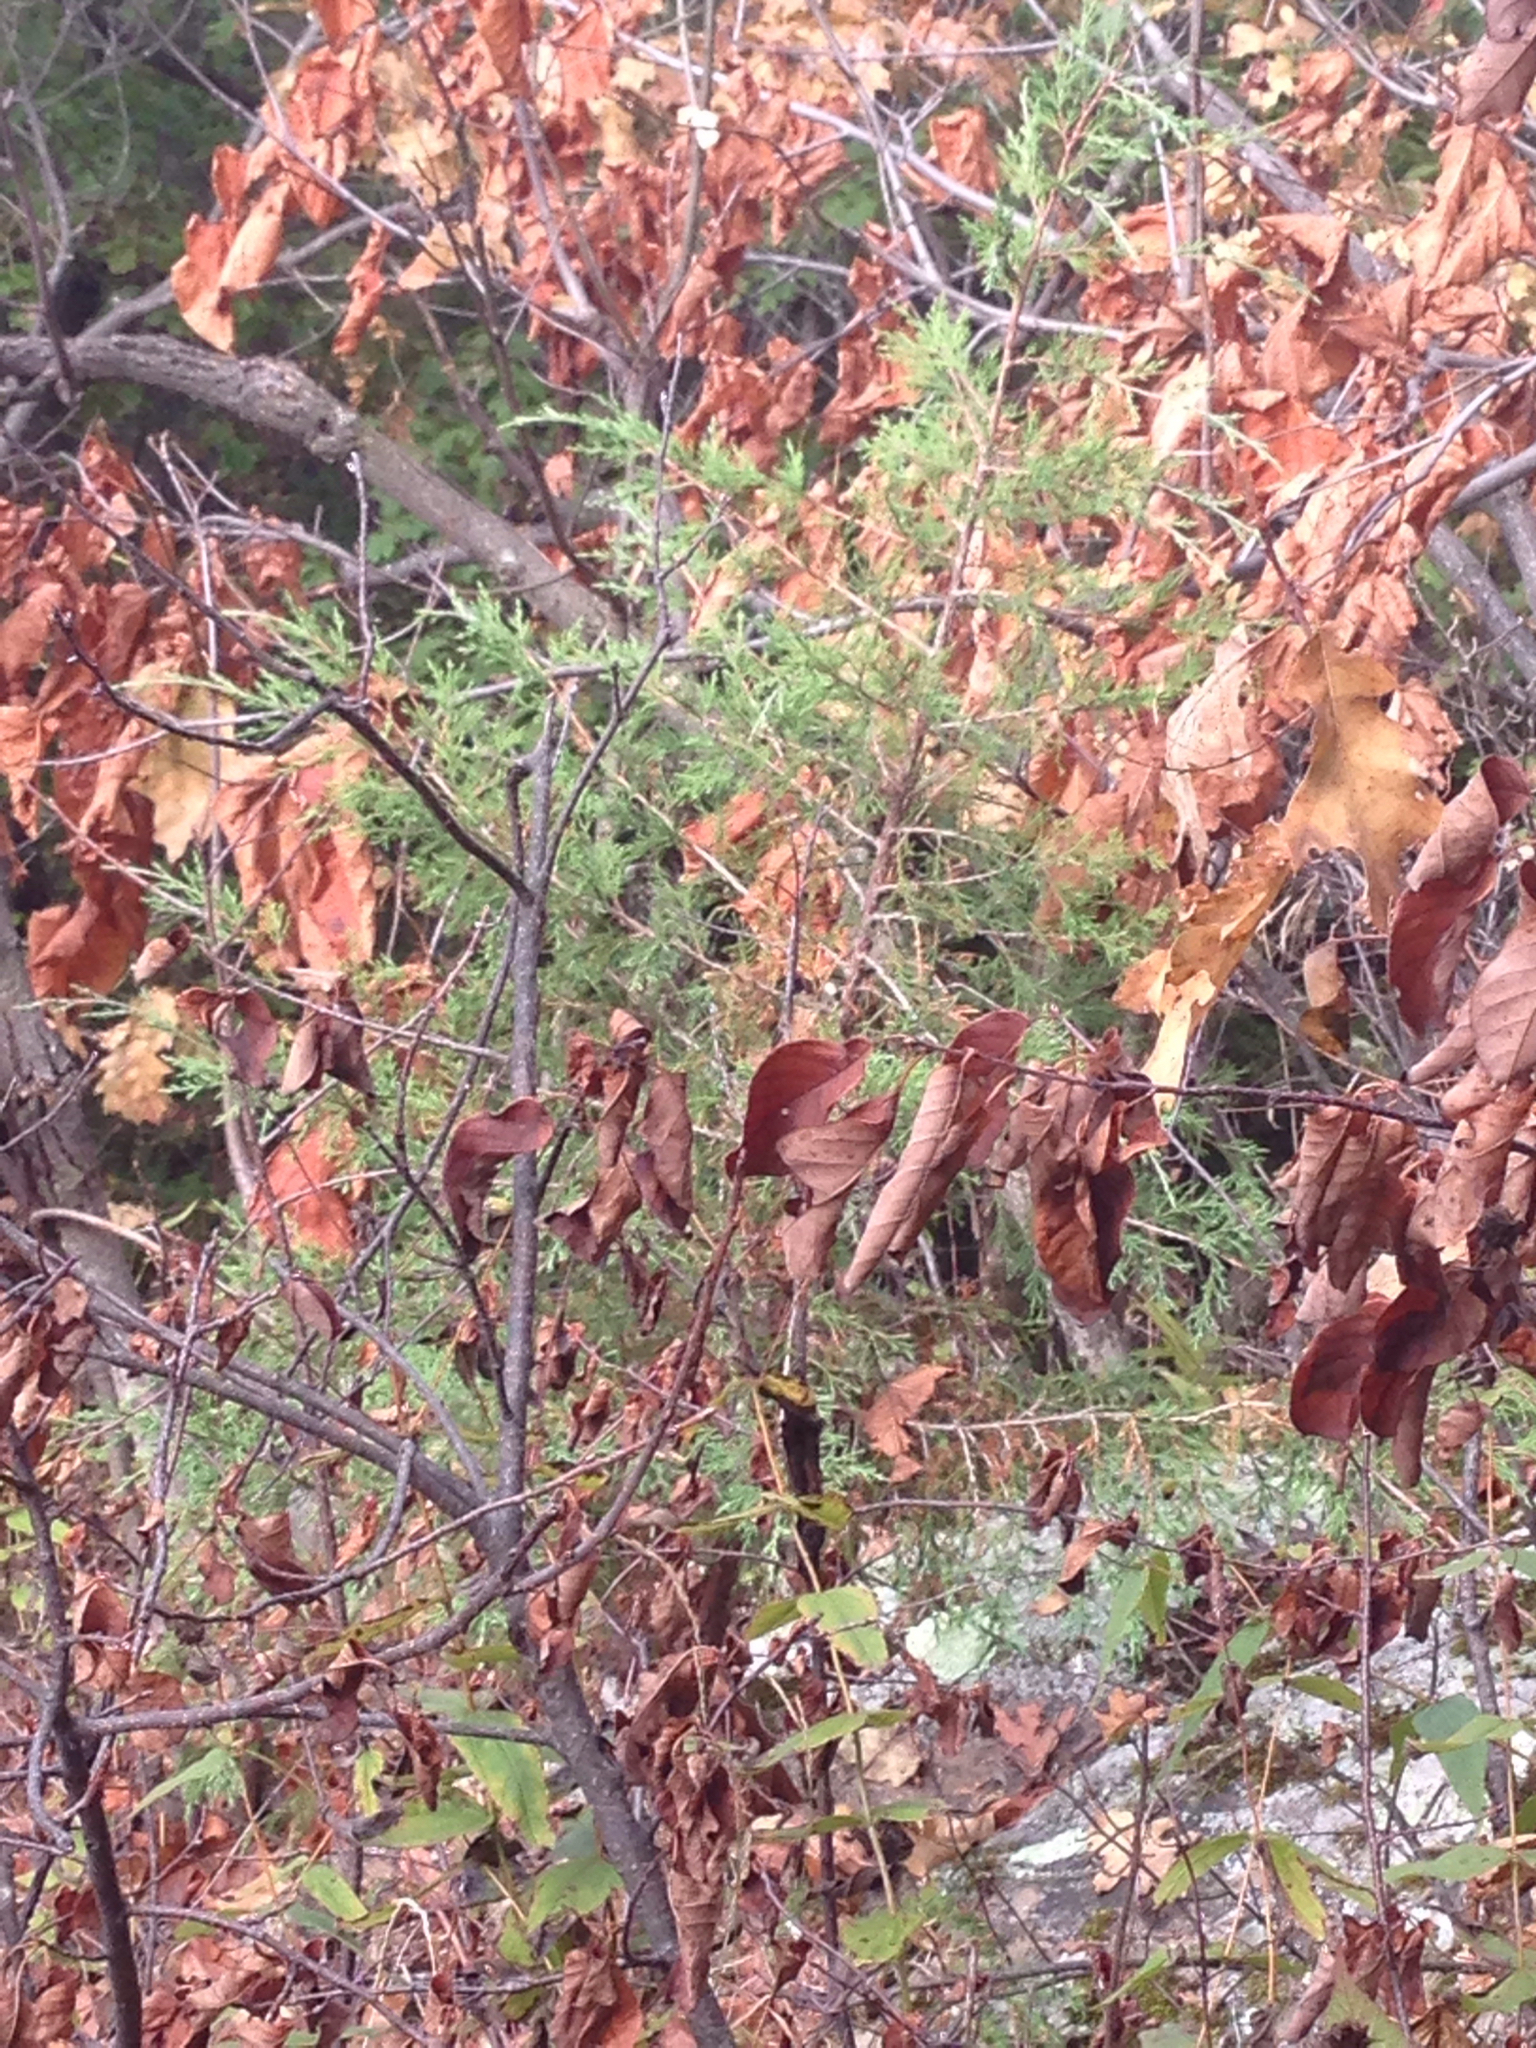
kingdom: Plantae
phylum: Tracheophyta
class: Pinopsida
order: Pinales
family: Cupressaceae
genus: Juniperus
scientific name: Juniperus virginiana
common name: Red juniper
